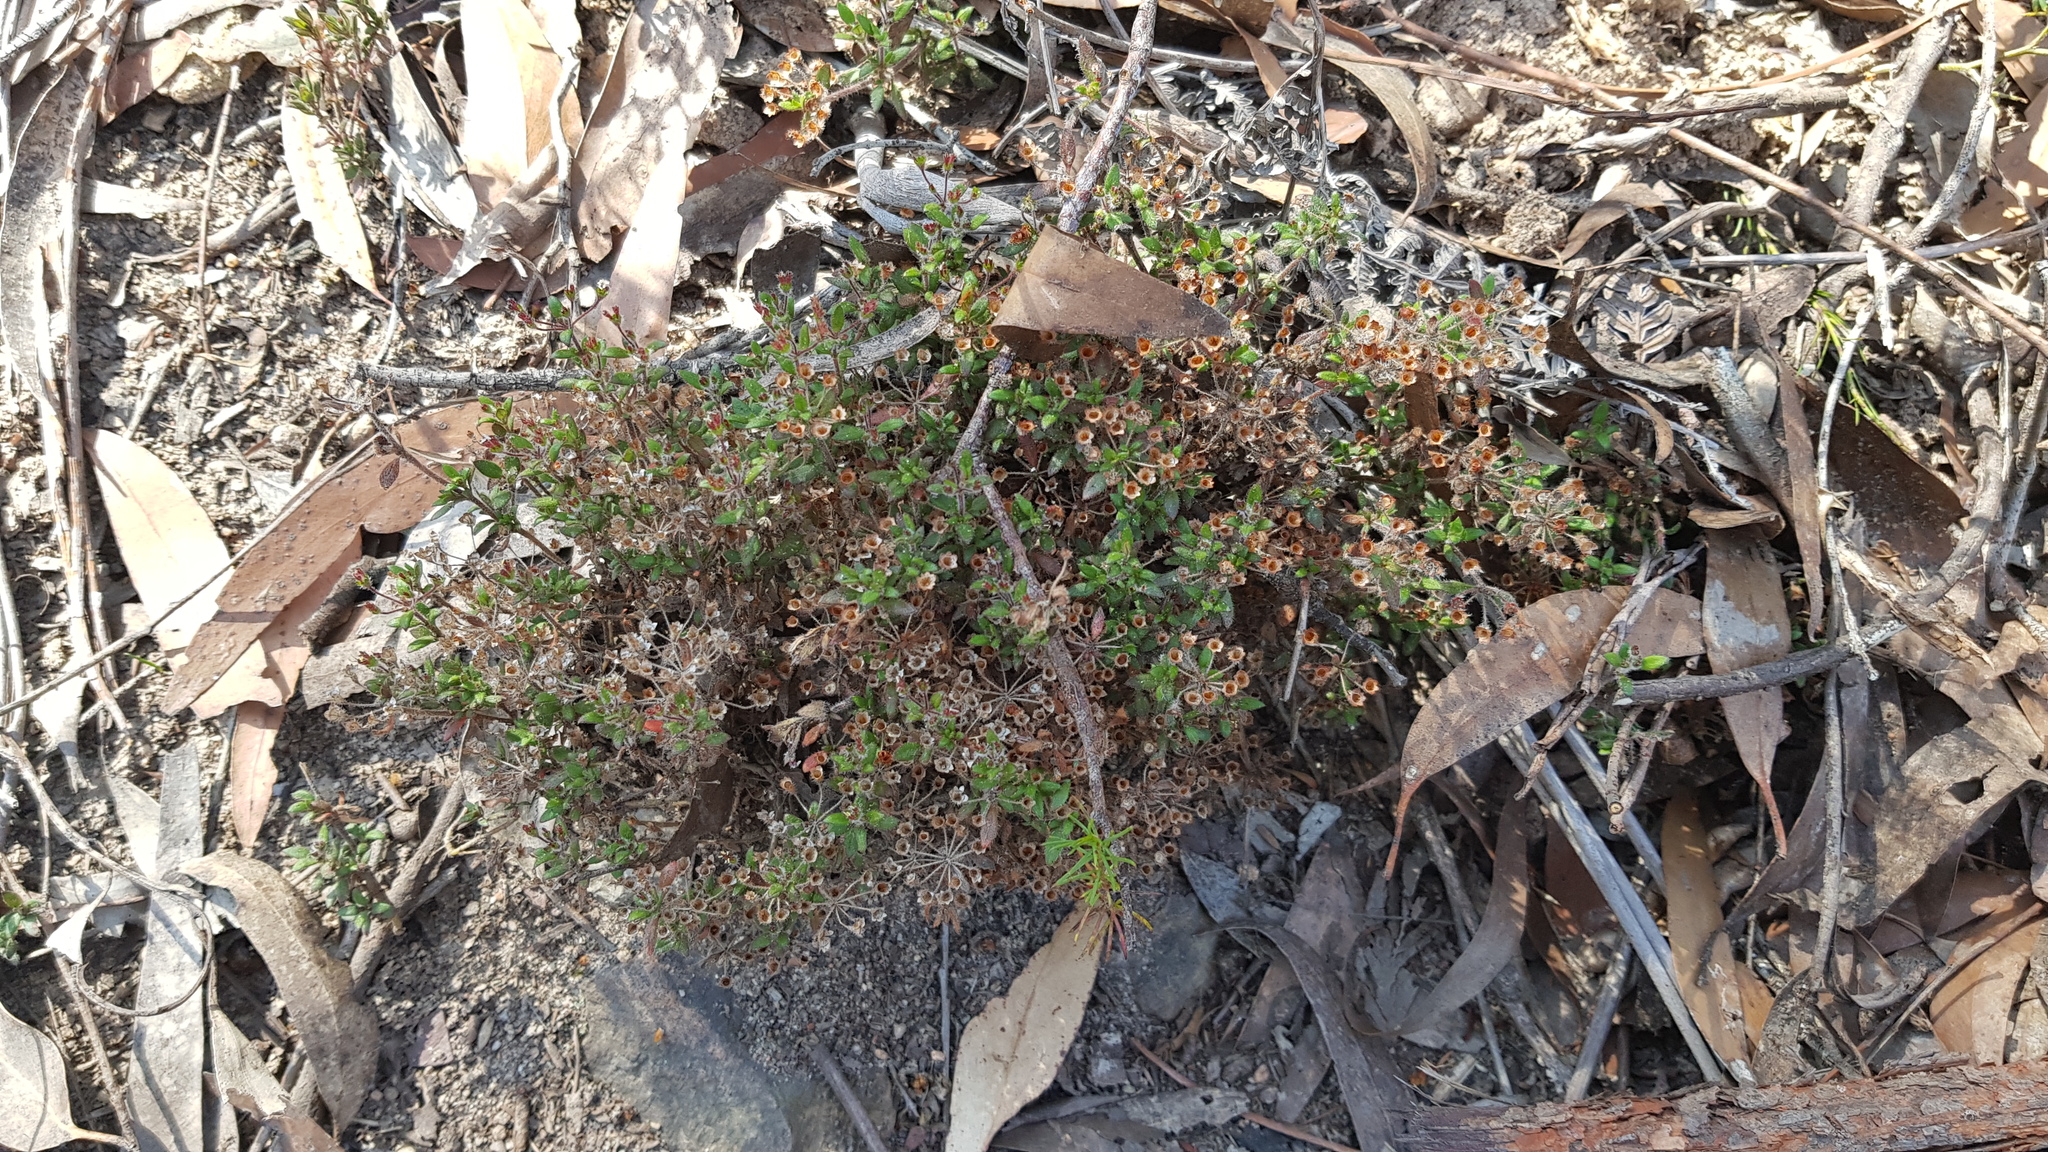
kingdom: Plantae
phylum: Tracheophyta
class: Magnoliopsida
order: Gentianales
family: Rubiaceae
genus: Pomax
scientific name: Pomax umbellata
